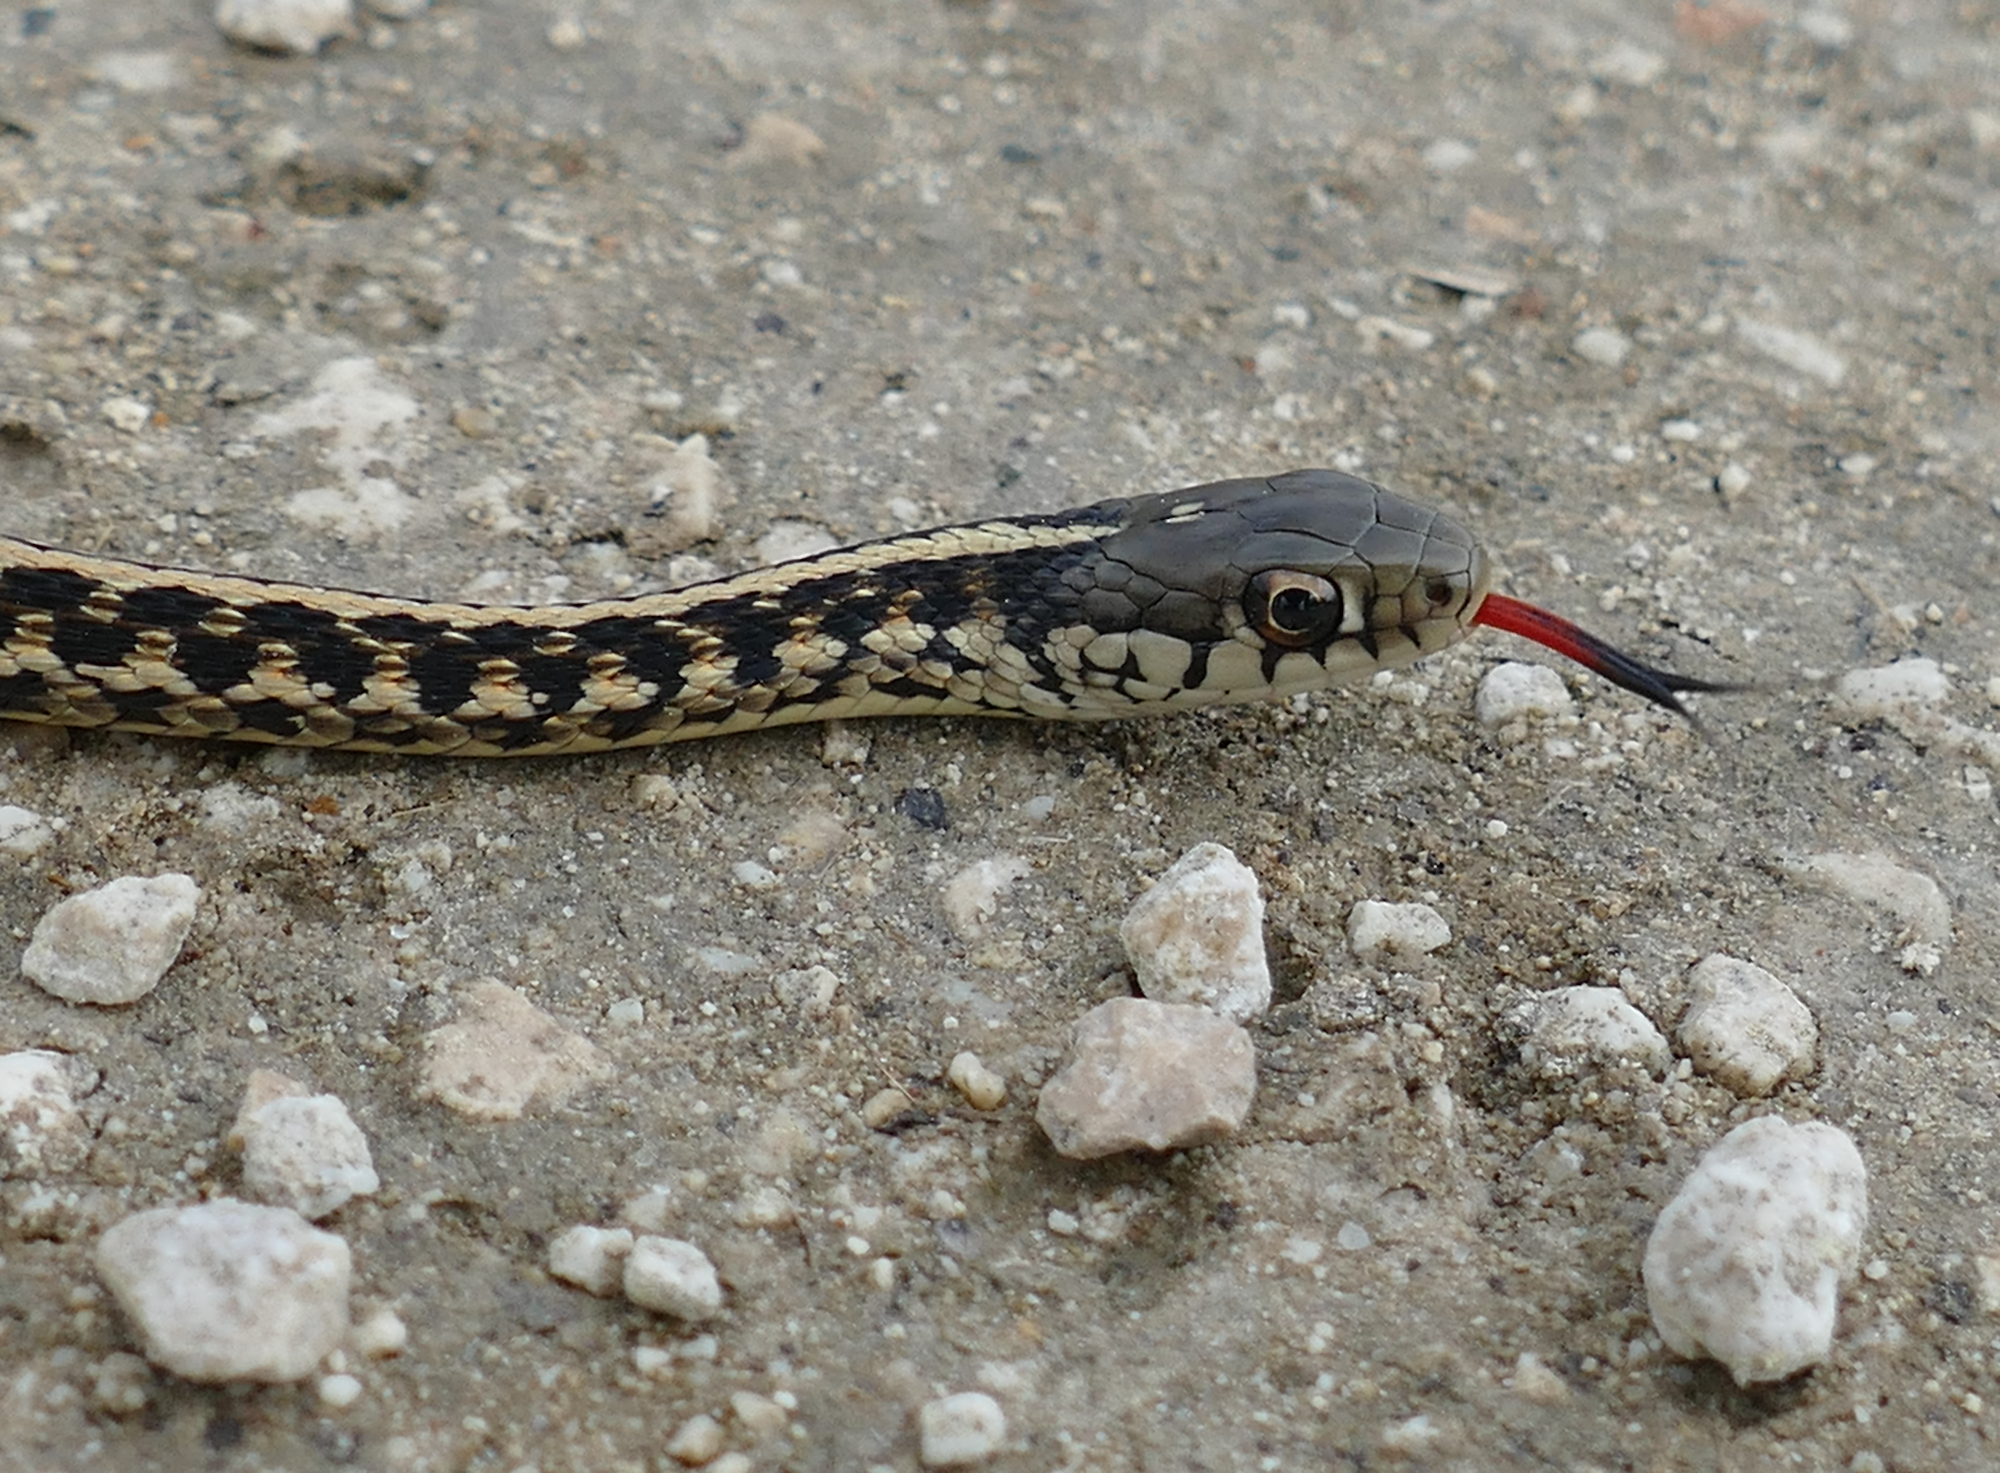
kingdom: Animalia
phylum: Chordata
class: Squamata
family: Colubridae
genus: Thamnophis
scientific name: Thamnophis sirtalis
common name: Common garter snake
